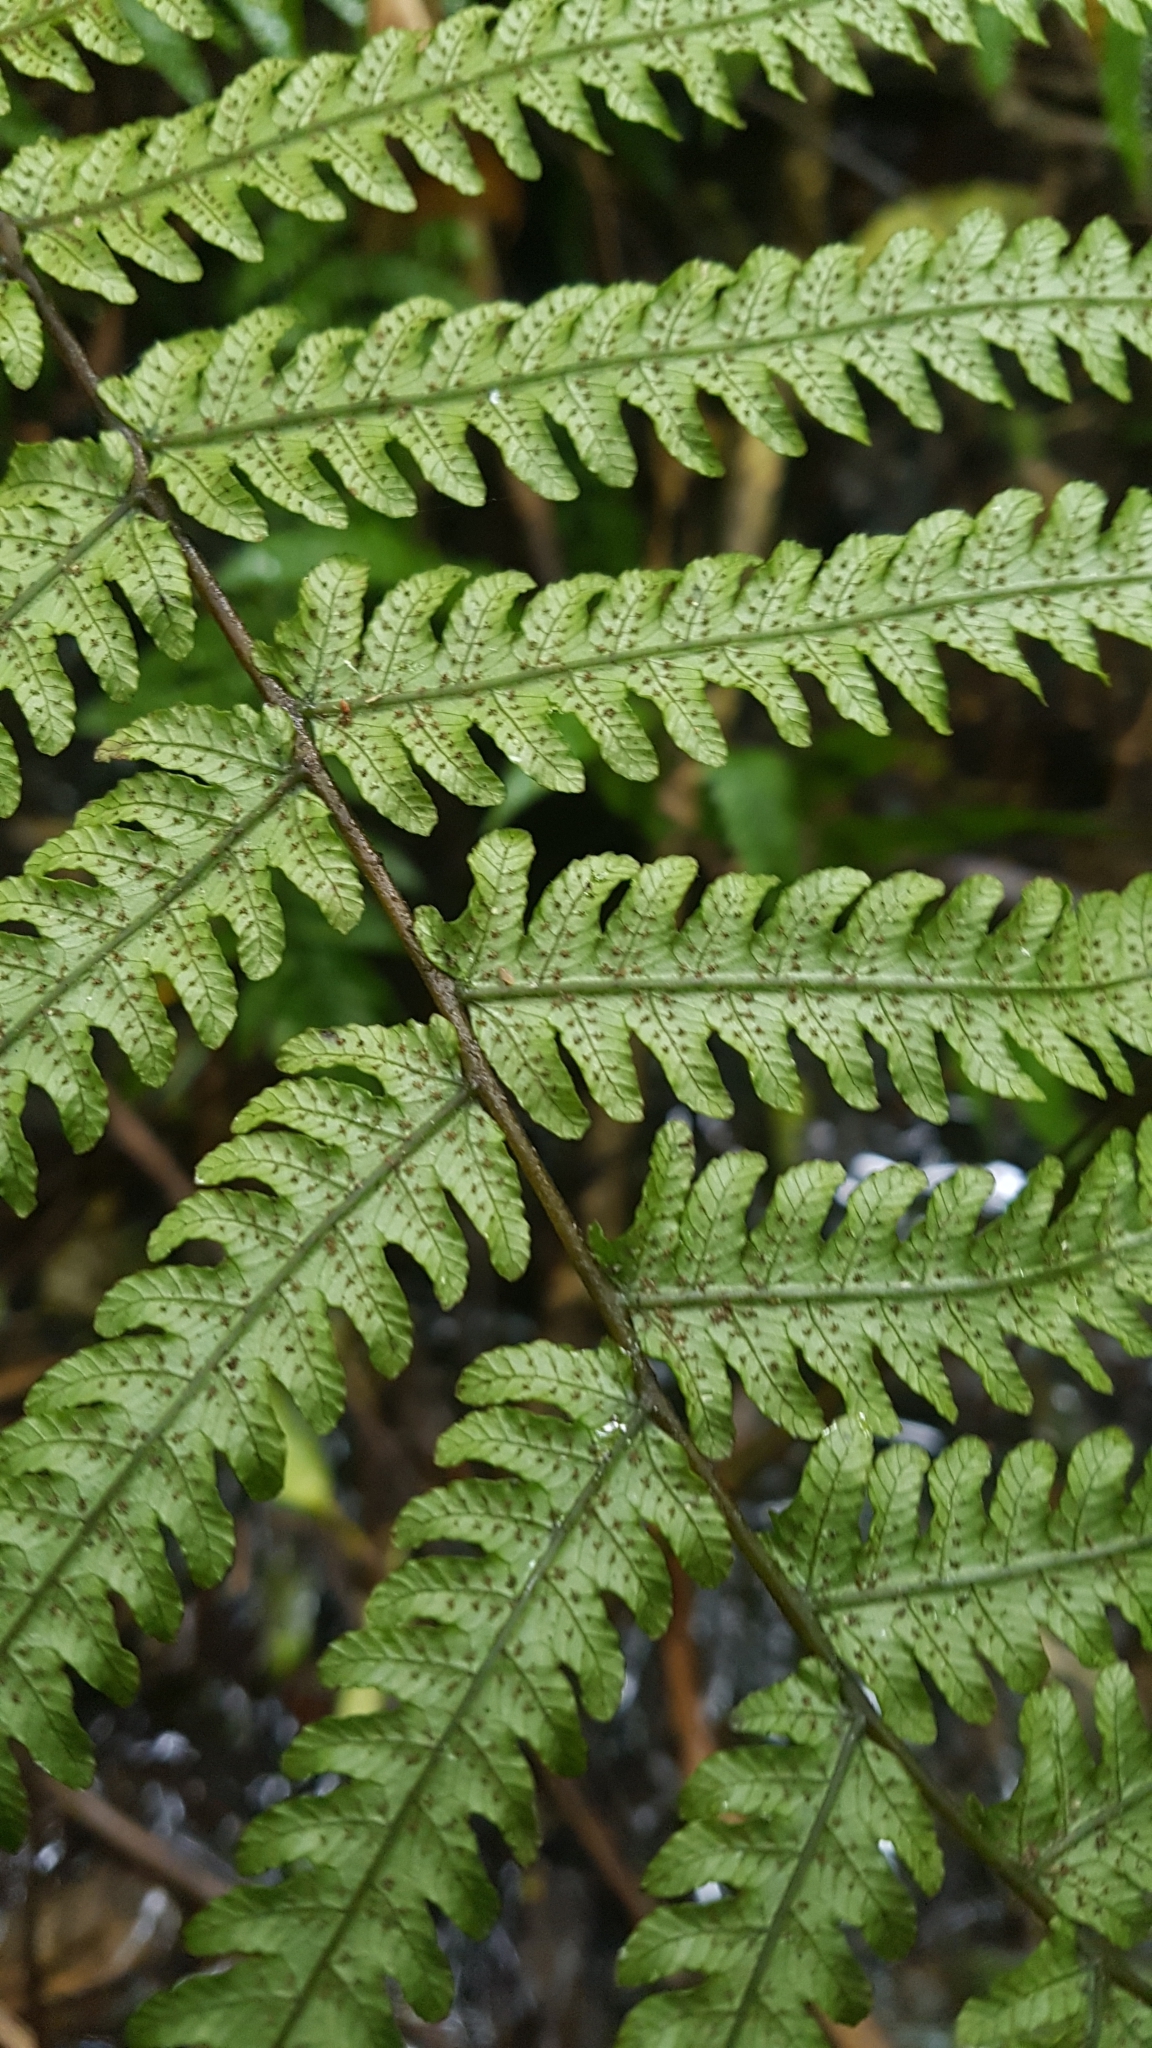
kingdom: Plantae
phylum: Tracheophyta
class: Polypodiopsida
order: Polypodiales
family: Thelypteridaceae
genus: Pakau
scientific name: Pakau pennigera
